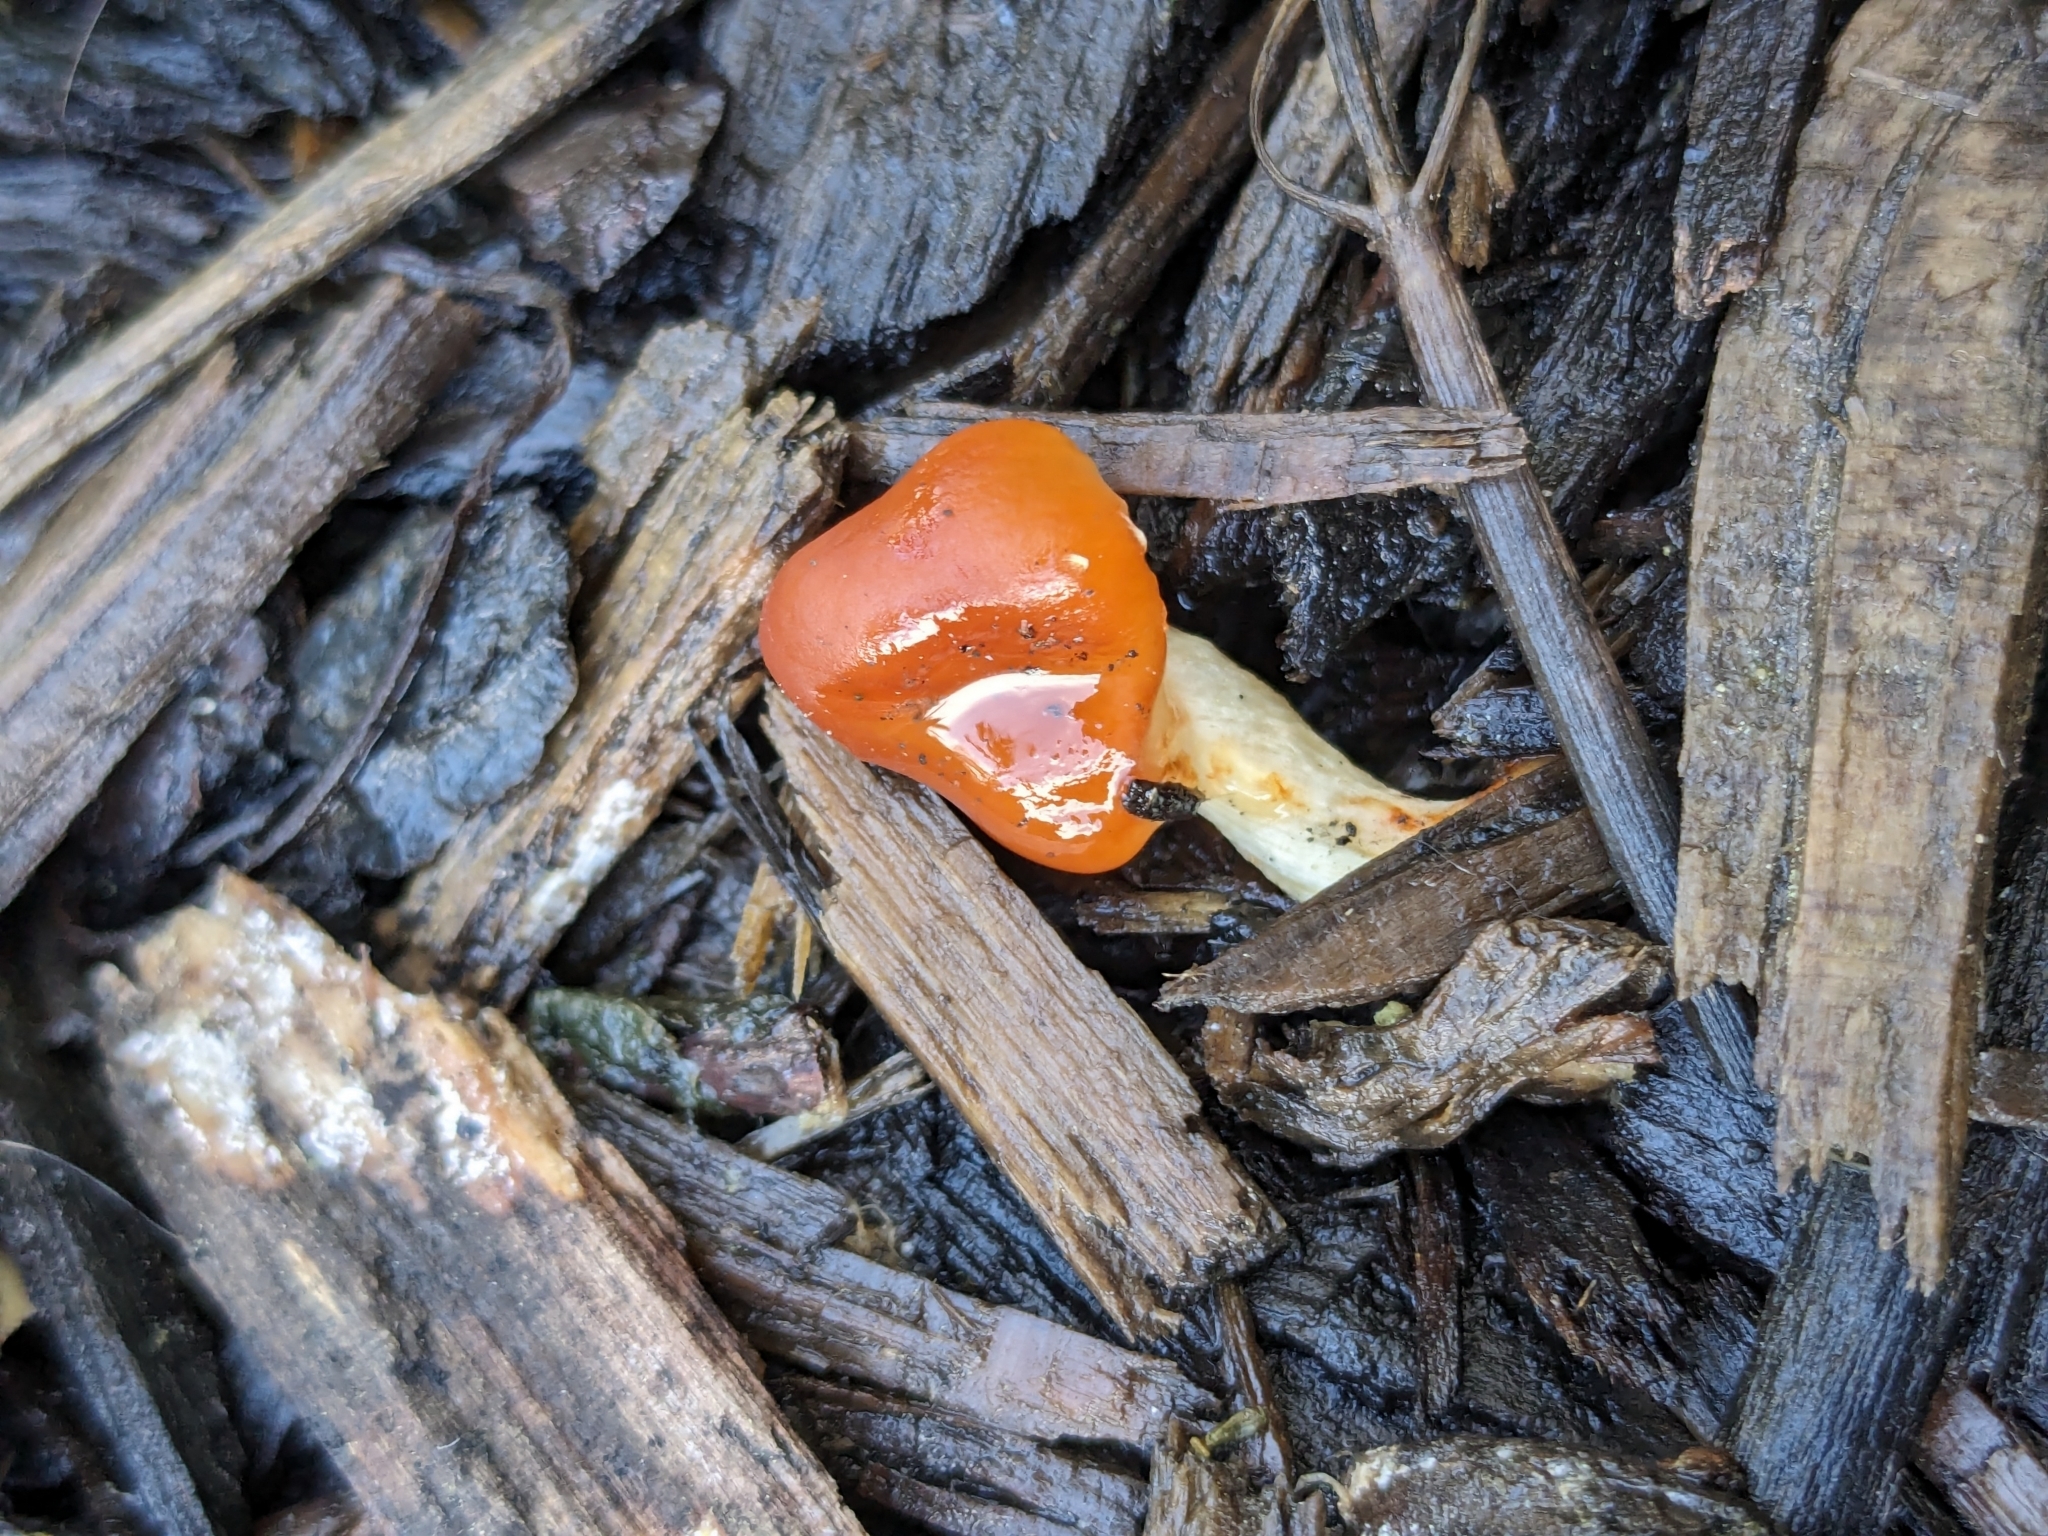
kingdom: Fungi
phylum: Basidiomycota
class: Agaricomycetes
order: Agaricales
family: Strophariaceae
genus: Leratiomyces
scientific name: Leratiomyces ceres
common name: Redlead roundhead
